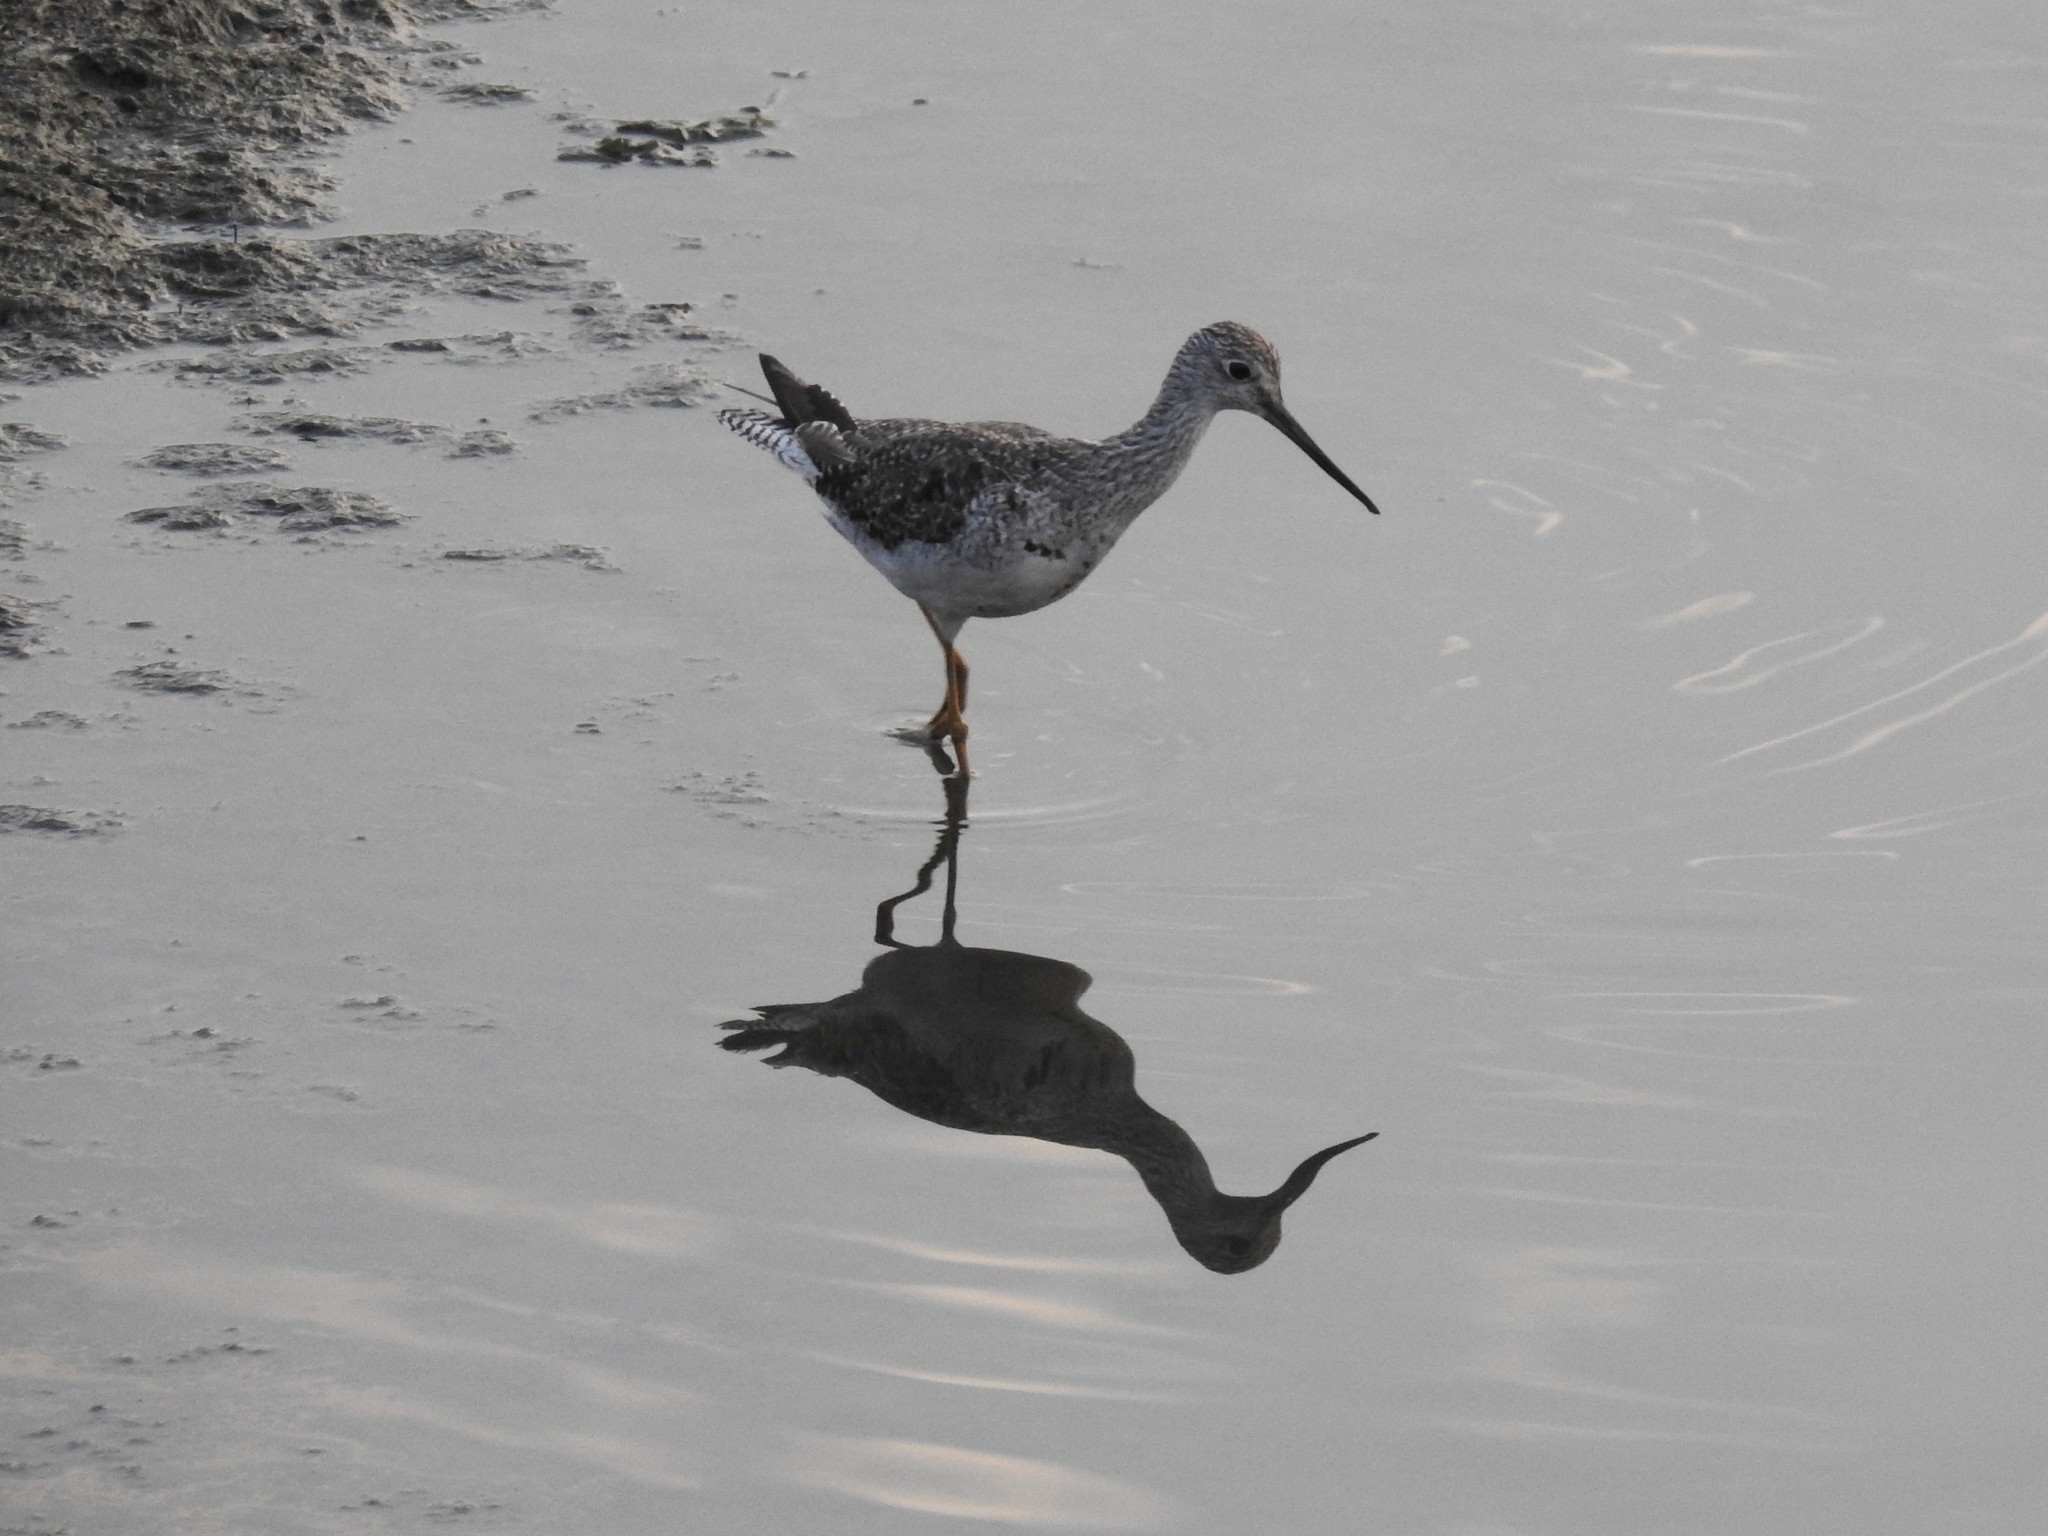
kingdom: Animalia
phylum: Chordata
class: Aves
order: Charadriiformes
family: Scolopacidae
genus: Tringa
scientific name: Tringa melanoleuca
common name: Greater yellowlegs
